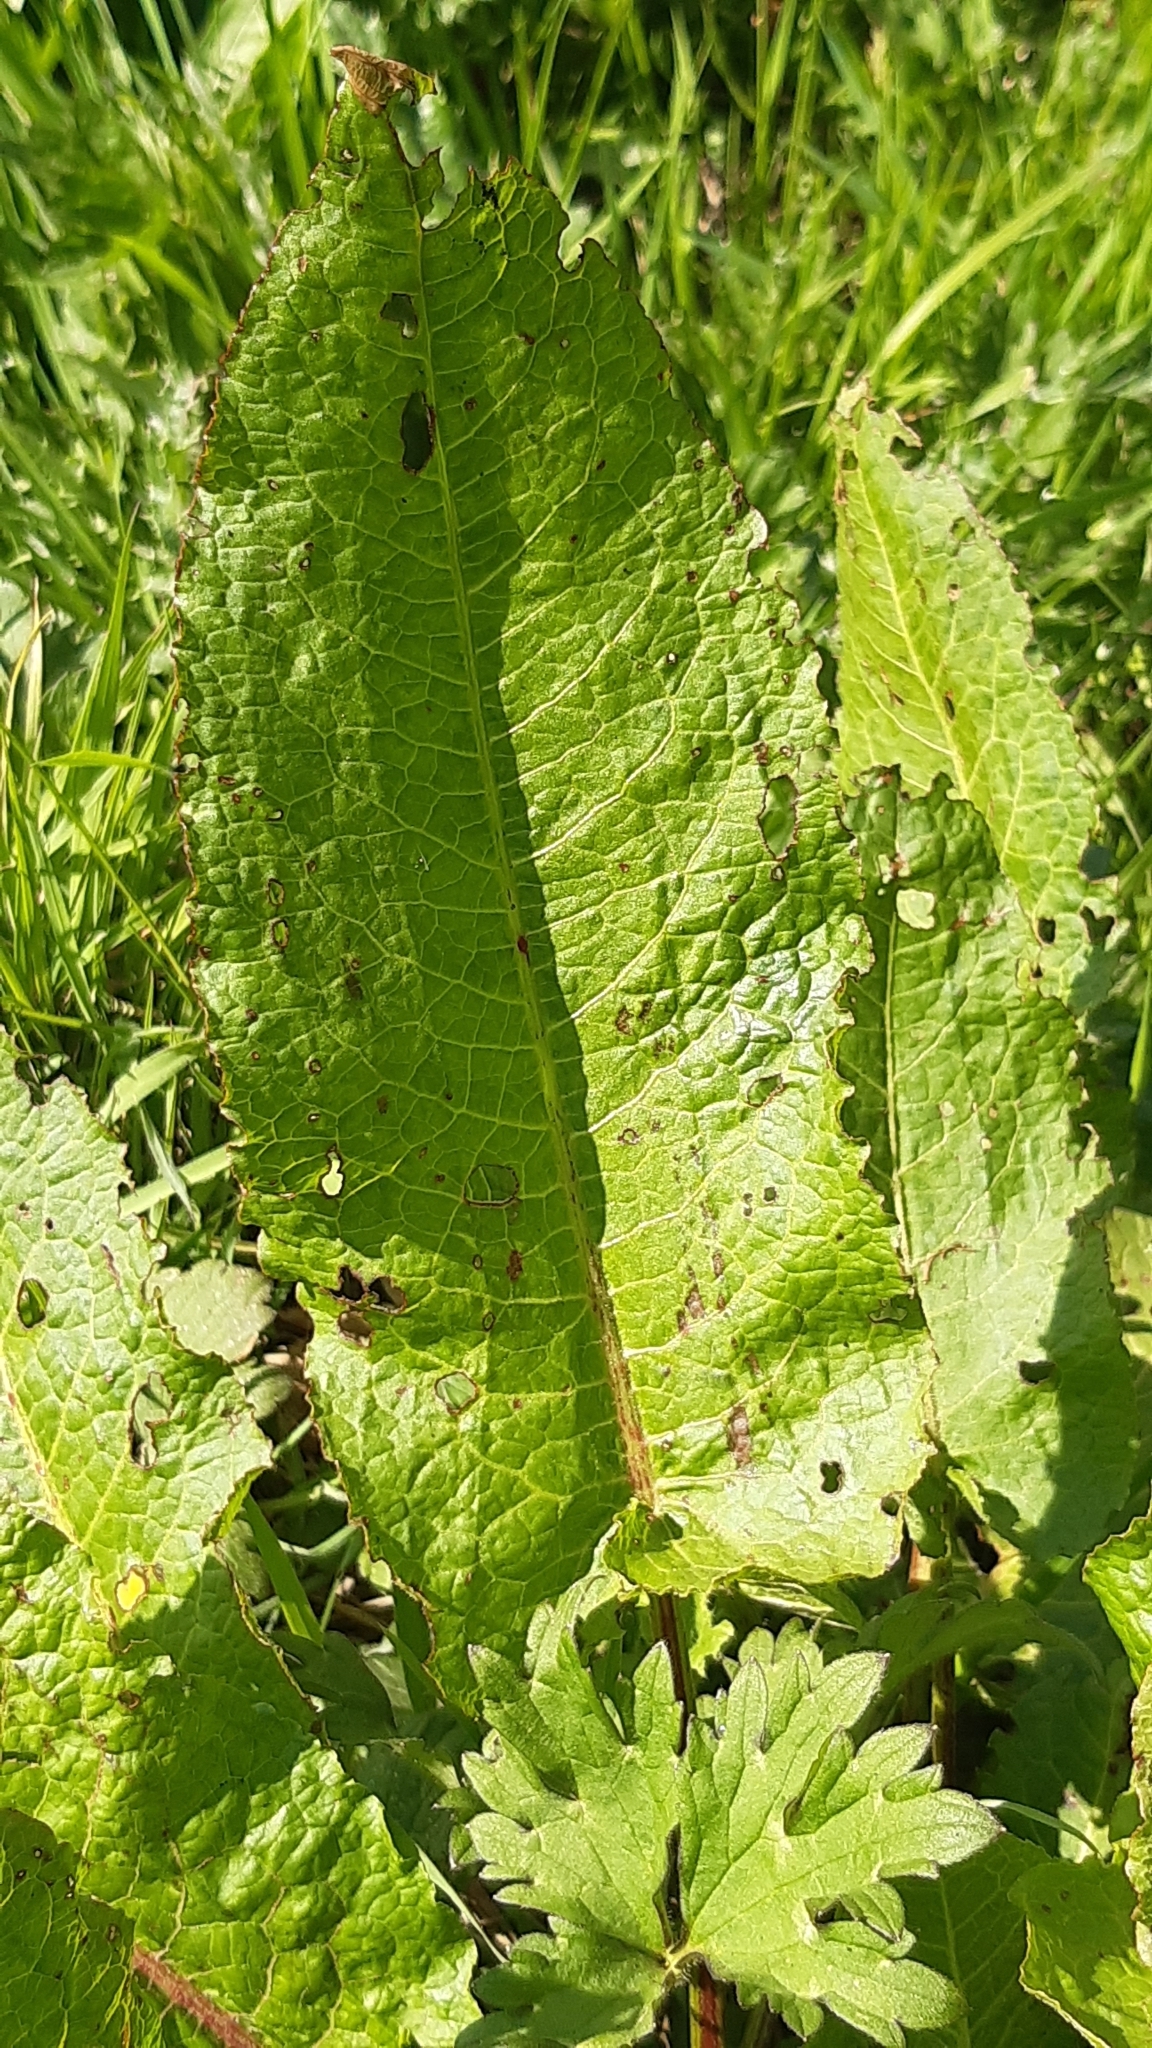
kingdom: Plantae
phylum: Tracheophyta
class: Magnoliopsida
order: Caryophyllales
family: Polygonaceae
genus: Rumex
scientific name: Rumex obtusifolius
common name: Bitter dock
